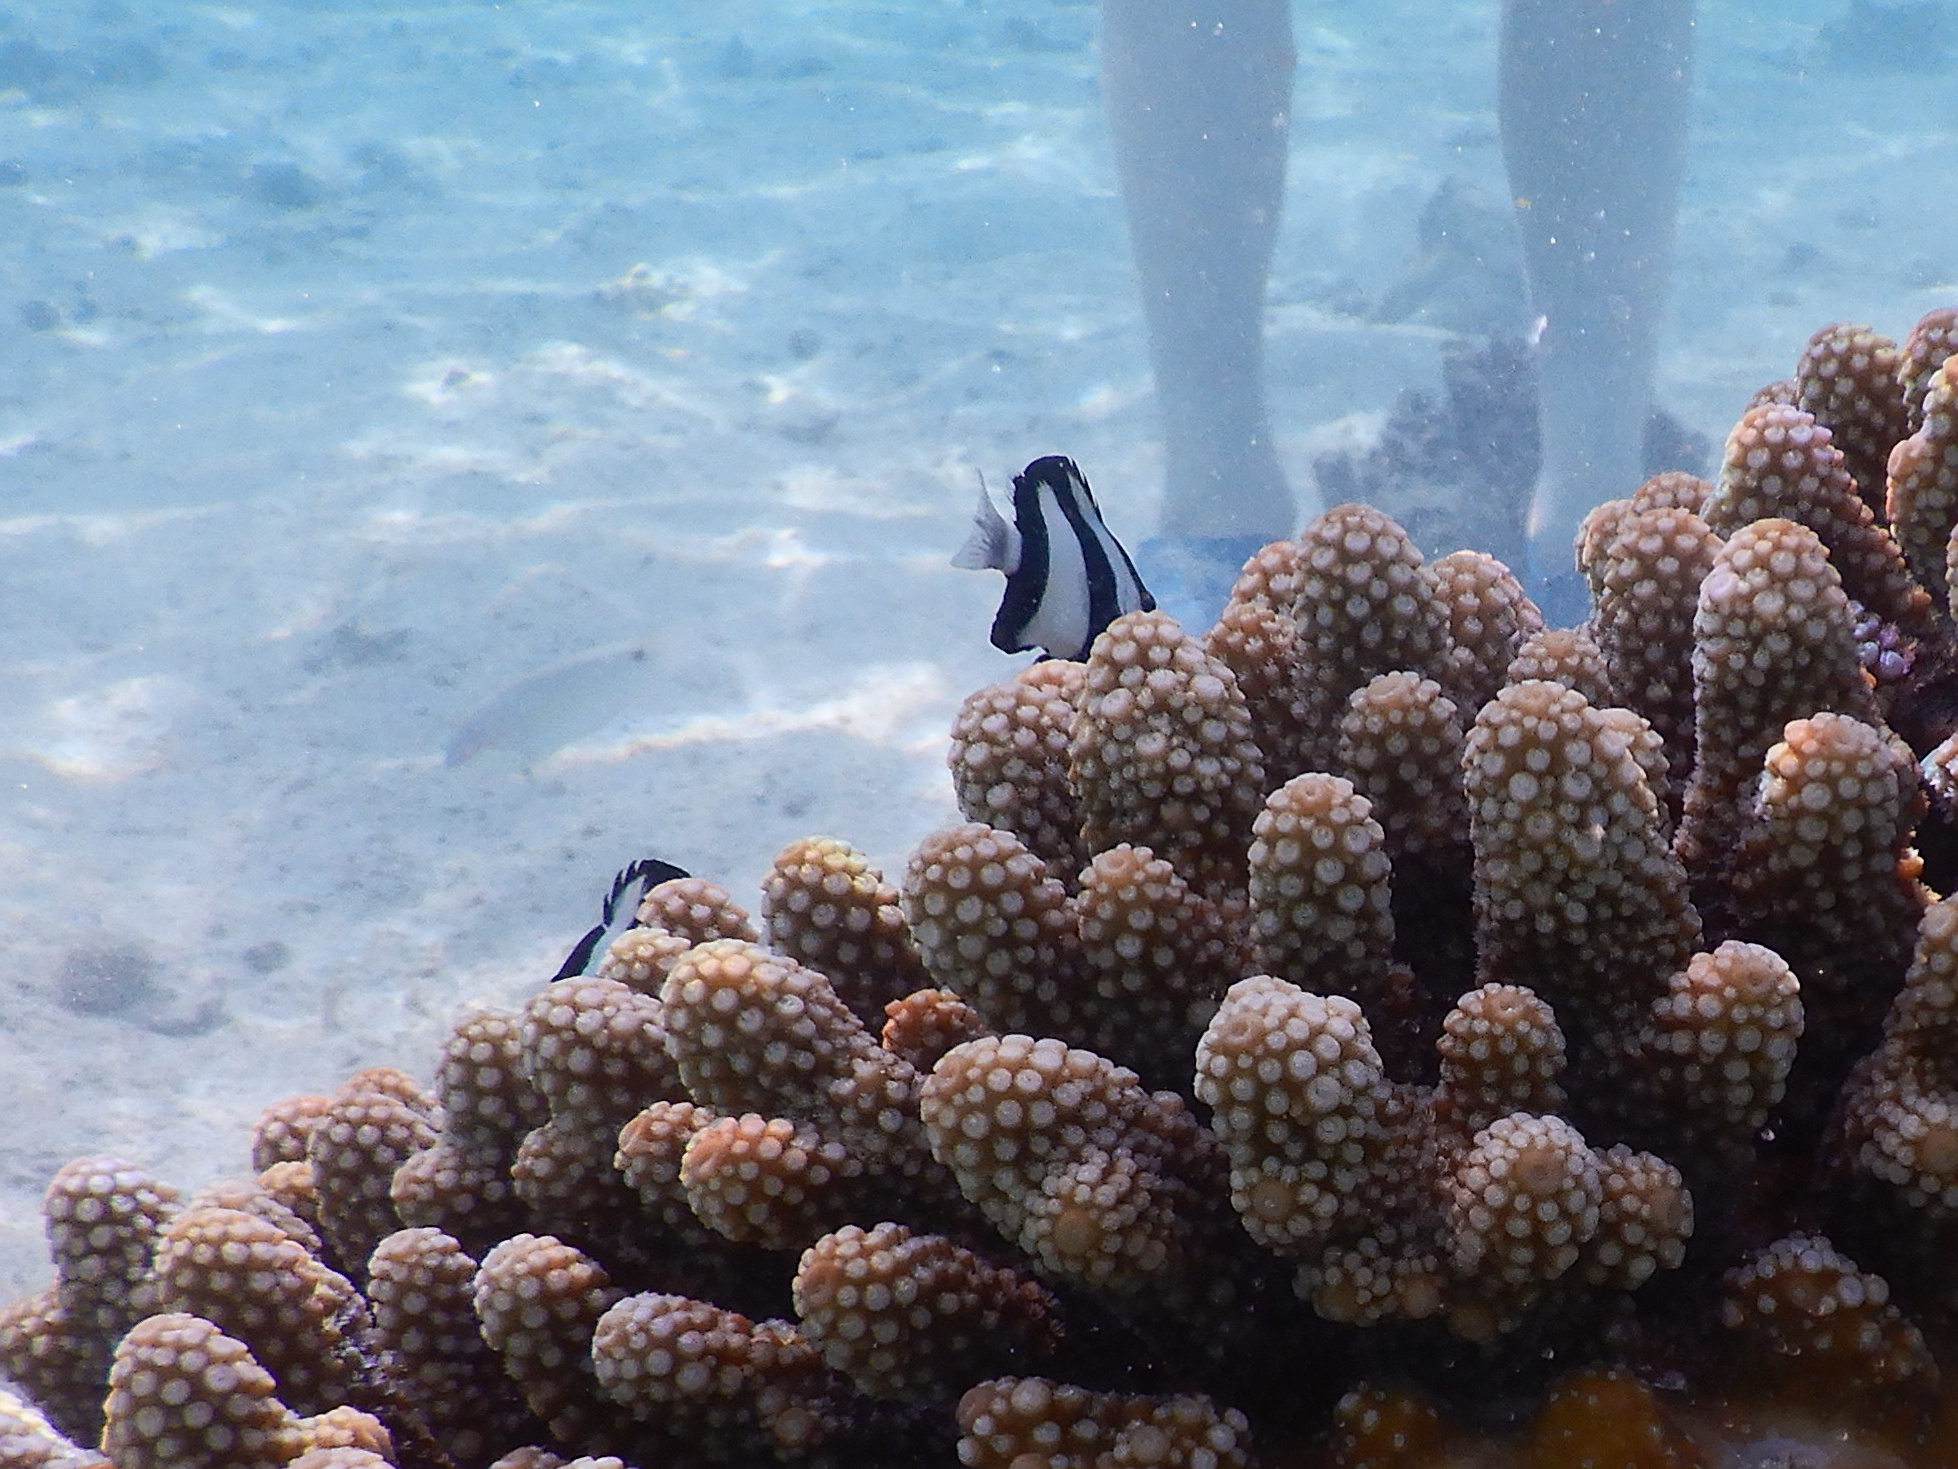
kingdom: Animalia
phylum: Chordata
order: Perciformes
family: Pomacentridae
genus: Dascyllus
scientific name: Dascyllus aruanus
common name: Humbug dascyllus
